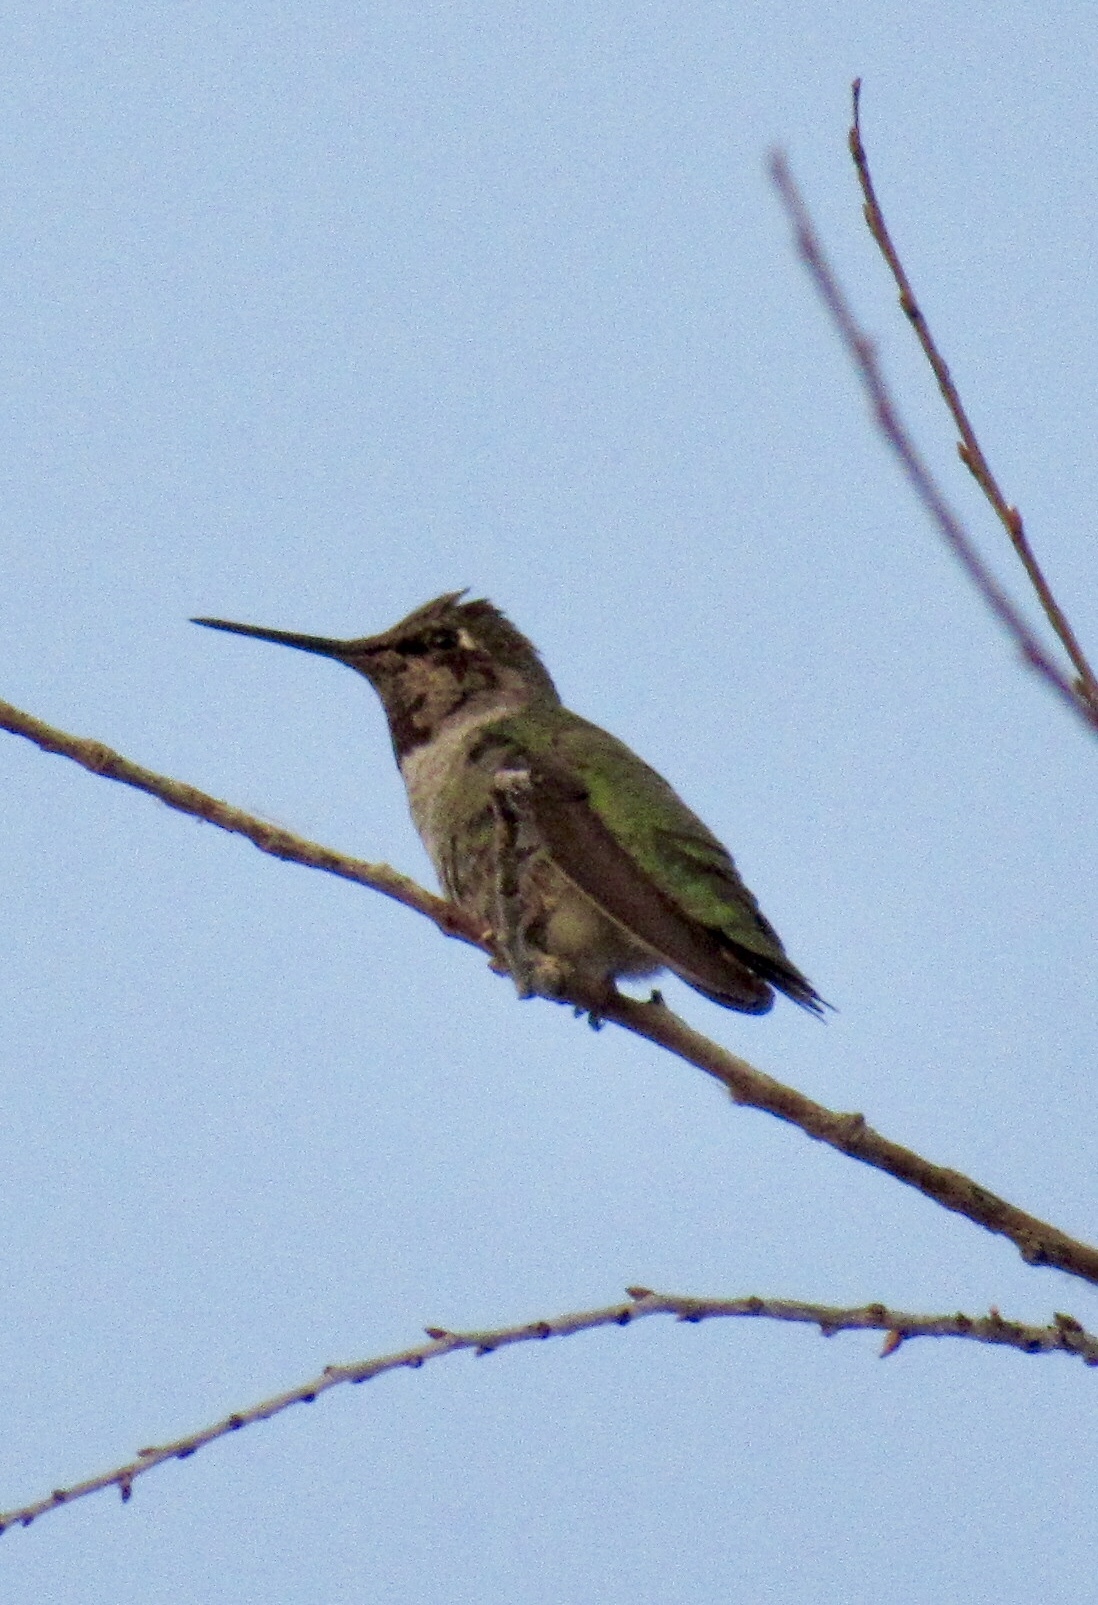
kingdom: Animalia
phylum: Chordata
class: Aves
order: Apodiformes
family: Trochilidae
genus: Calypte
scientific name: Calypte anna
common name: Anna's hummingbird
